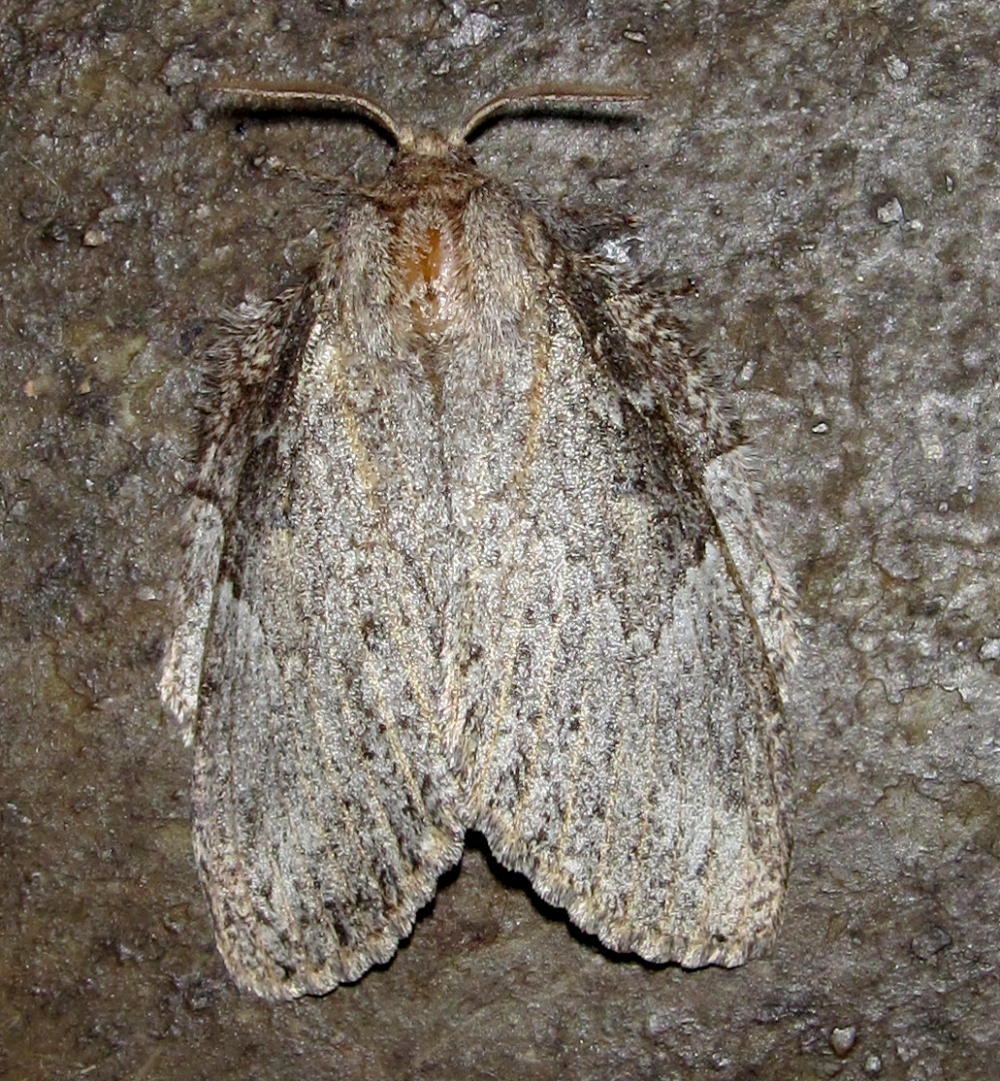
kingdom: Animalia
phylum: Arthropoda
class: Insecta
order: Lepidoptera
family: Lasiocampidae
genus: Metajana
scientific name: Metajana marshalli
